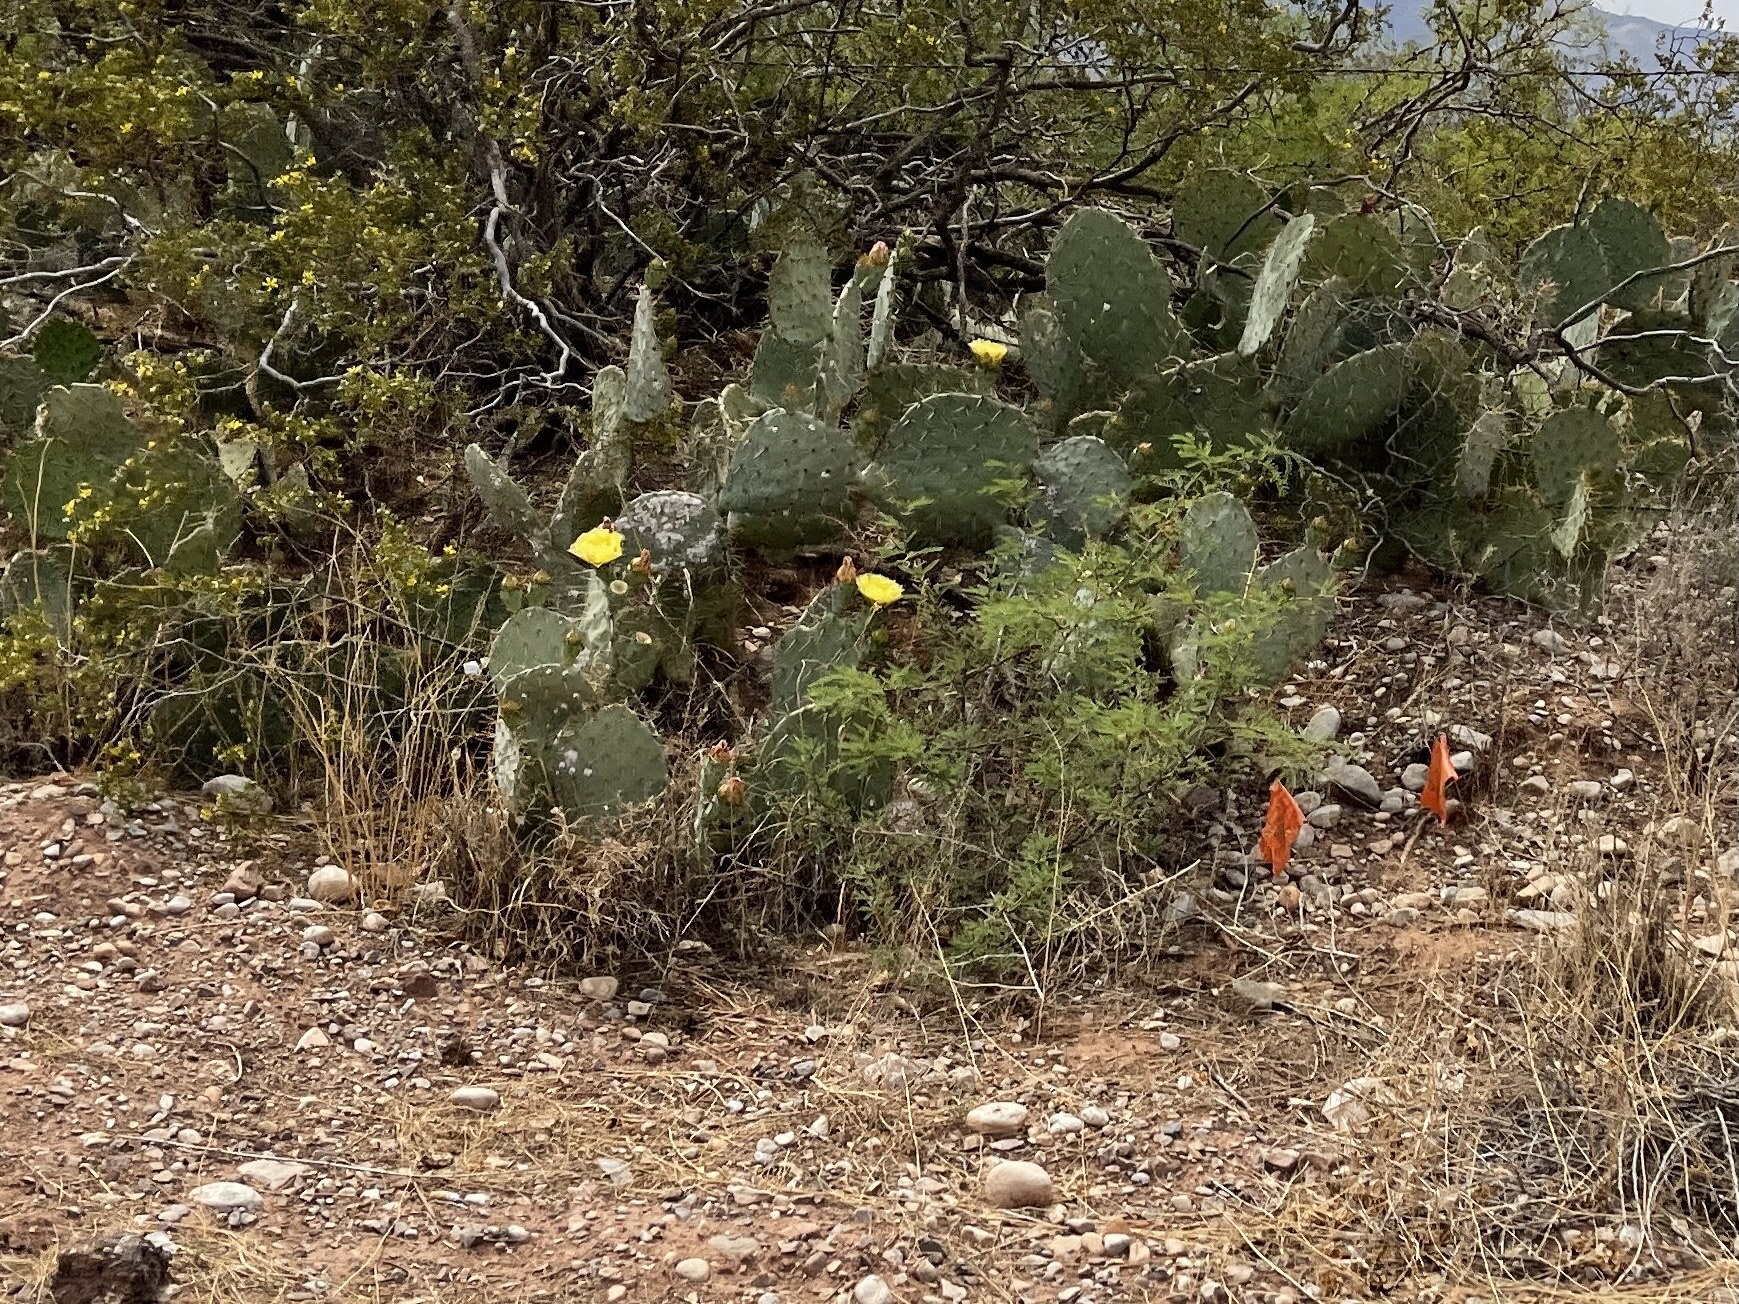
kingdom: Plantae
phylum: Tracheophyta
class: Magnoliopsida
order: Caryophyllales
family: Cactaceae
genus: Opuntia
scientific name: Opuntia engelmannii
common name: Cactus-apple
